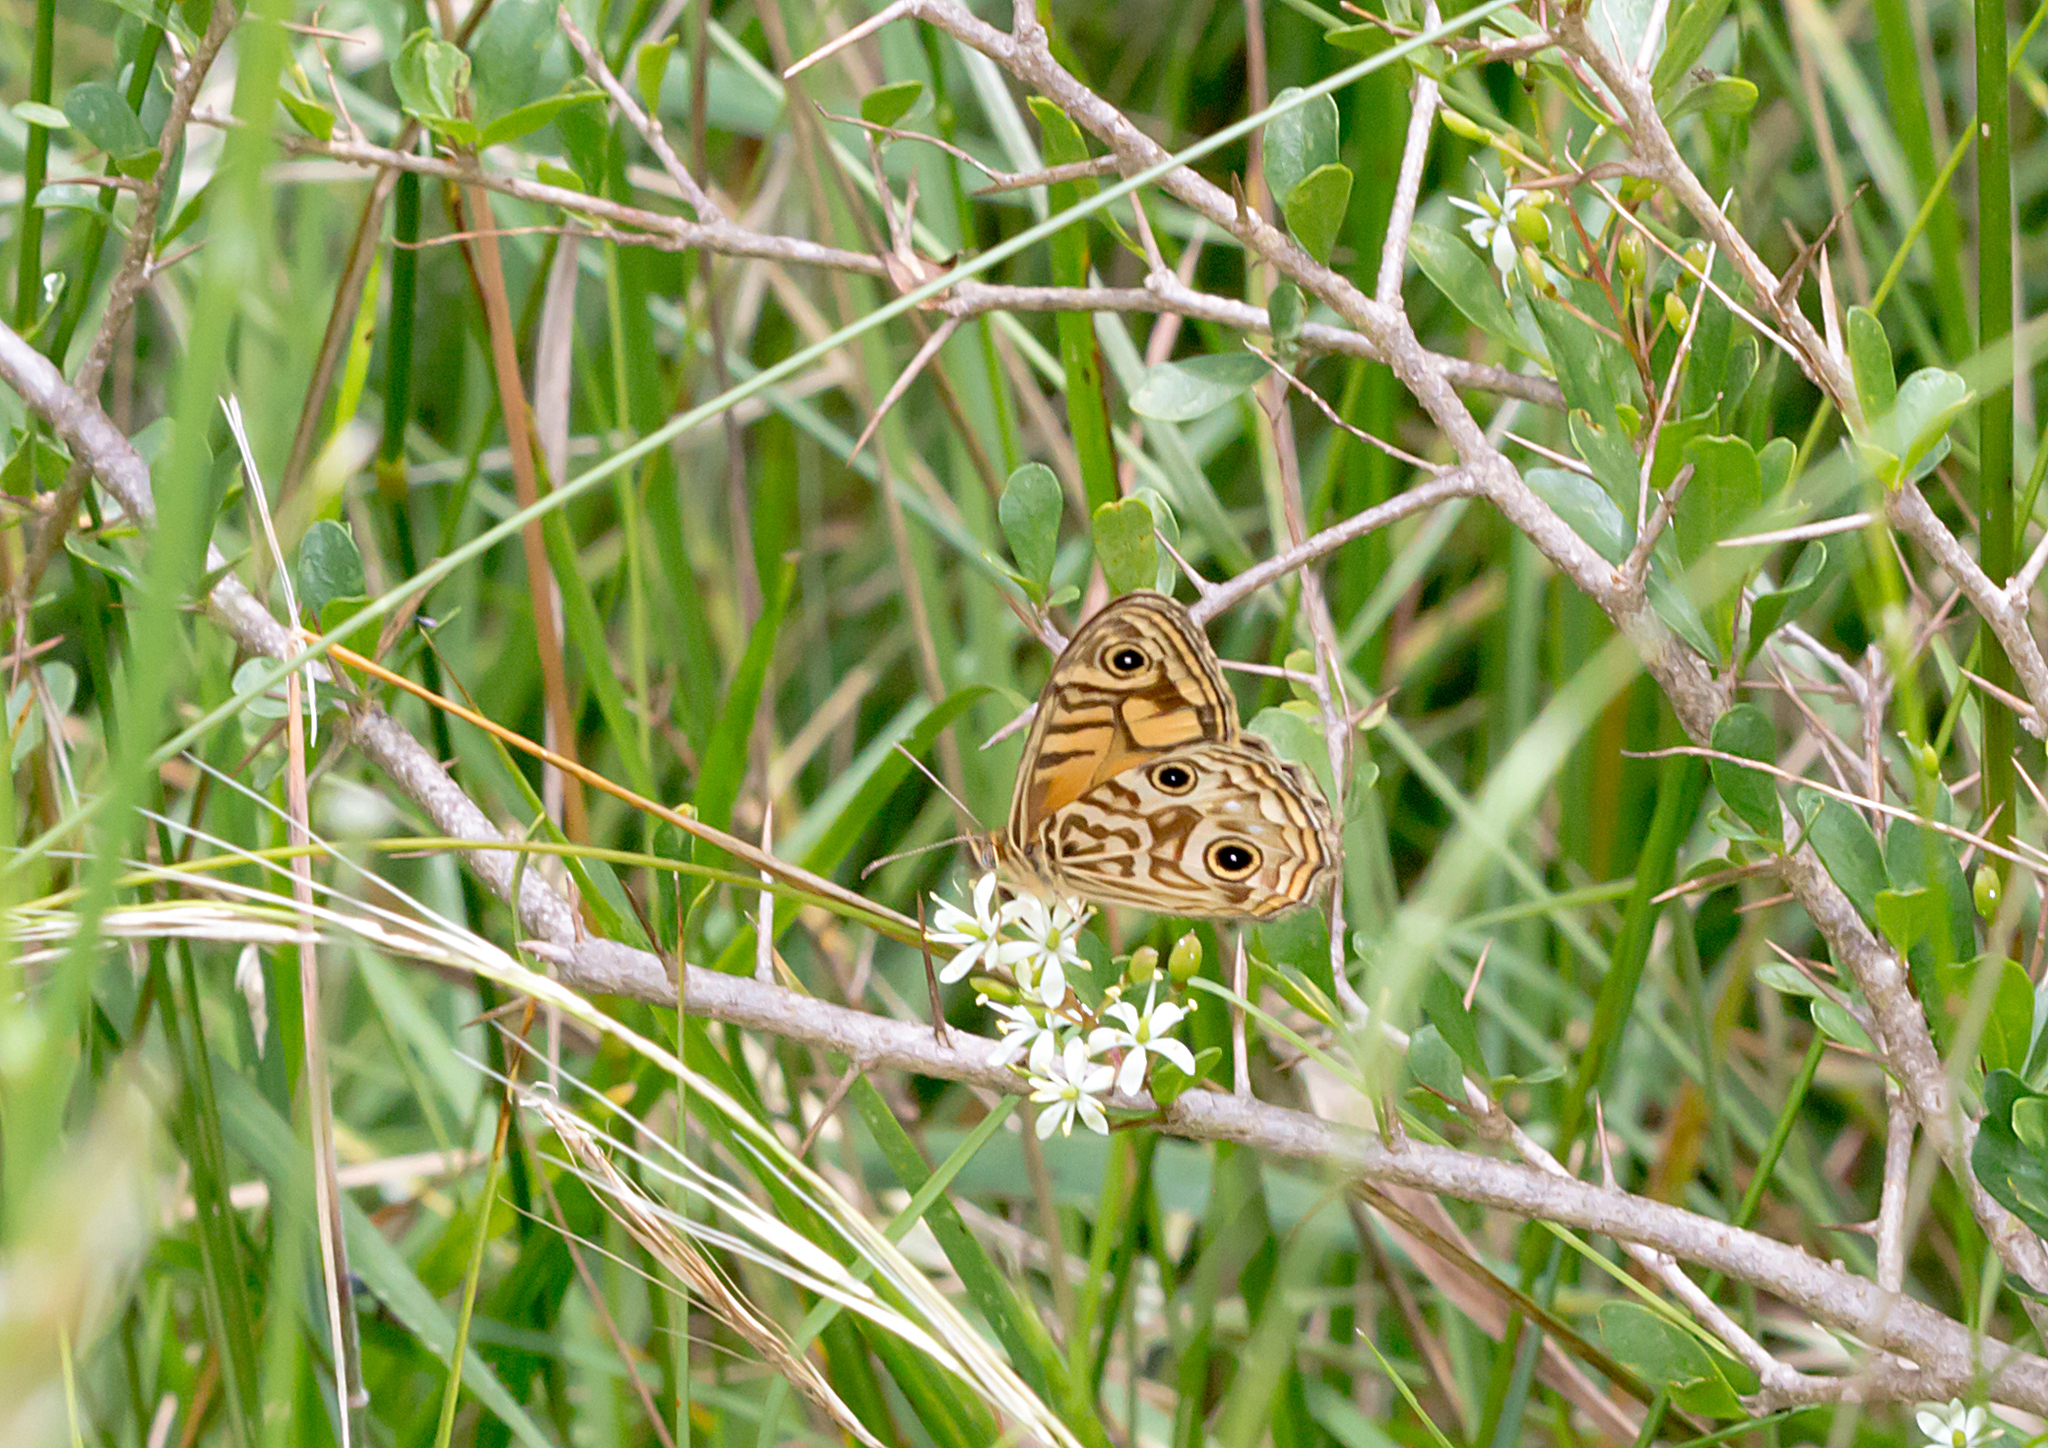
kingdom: Animalia
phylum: Arthropoda
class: Insecta
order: Lepidoptera
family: Nymphalidae
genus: Geitoneura
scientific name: Geitoneura acantha
